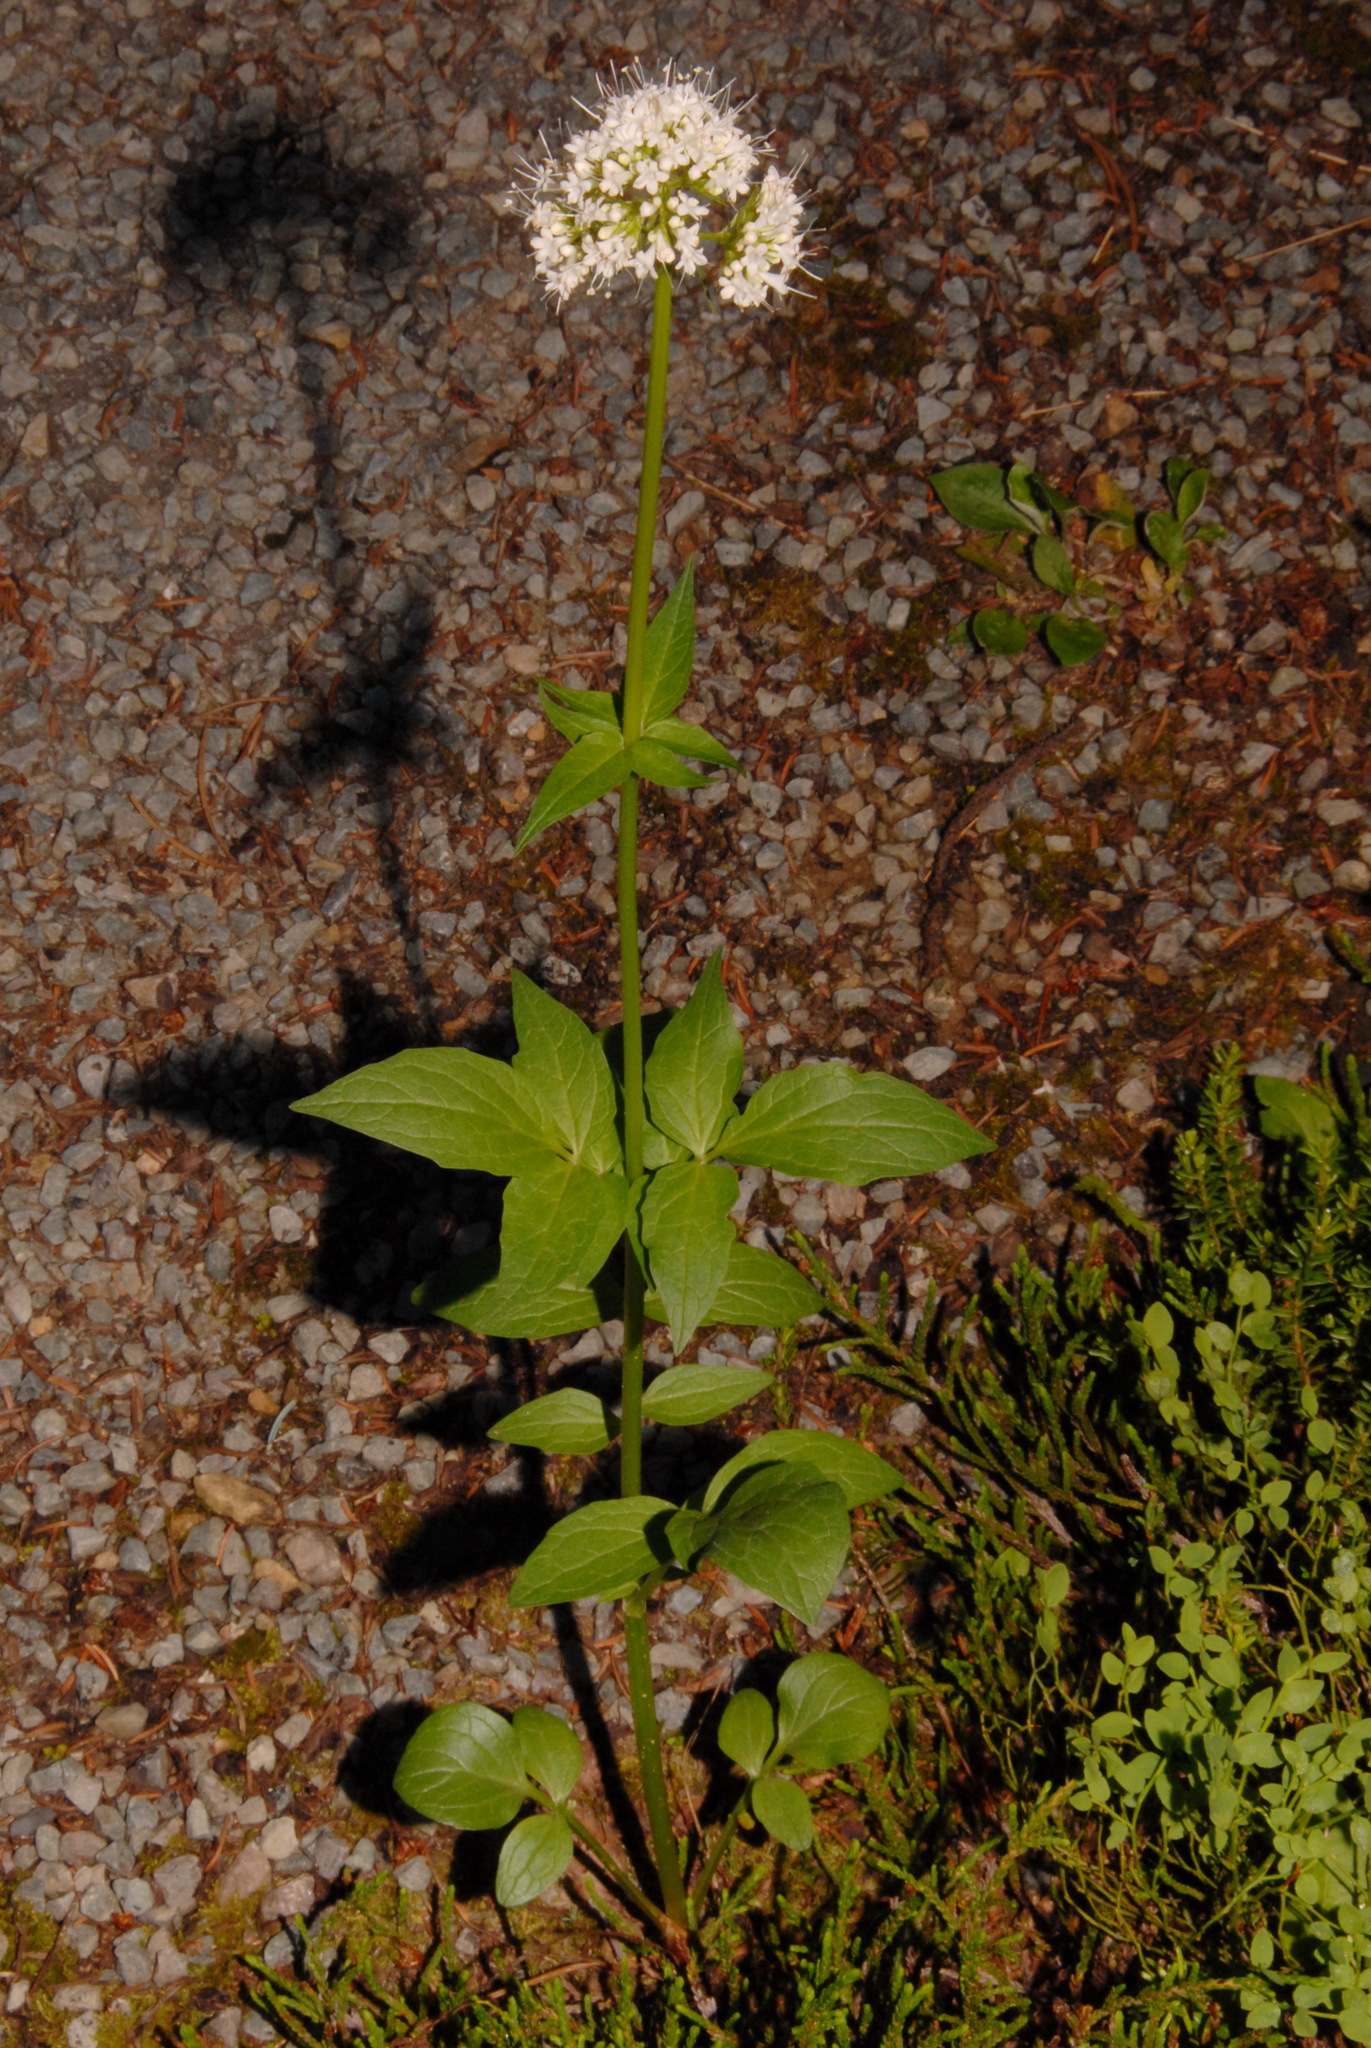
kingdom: Plantae
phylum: Tracheophyta
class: Magnoliopsida
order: Dipsacales
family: Caprifoliaceae
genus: Valeriana
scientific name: Valeriana sitchensis
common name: Pacific valerian
